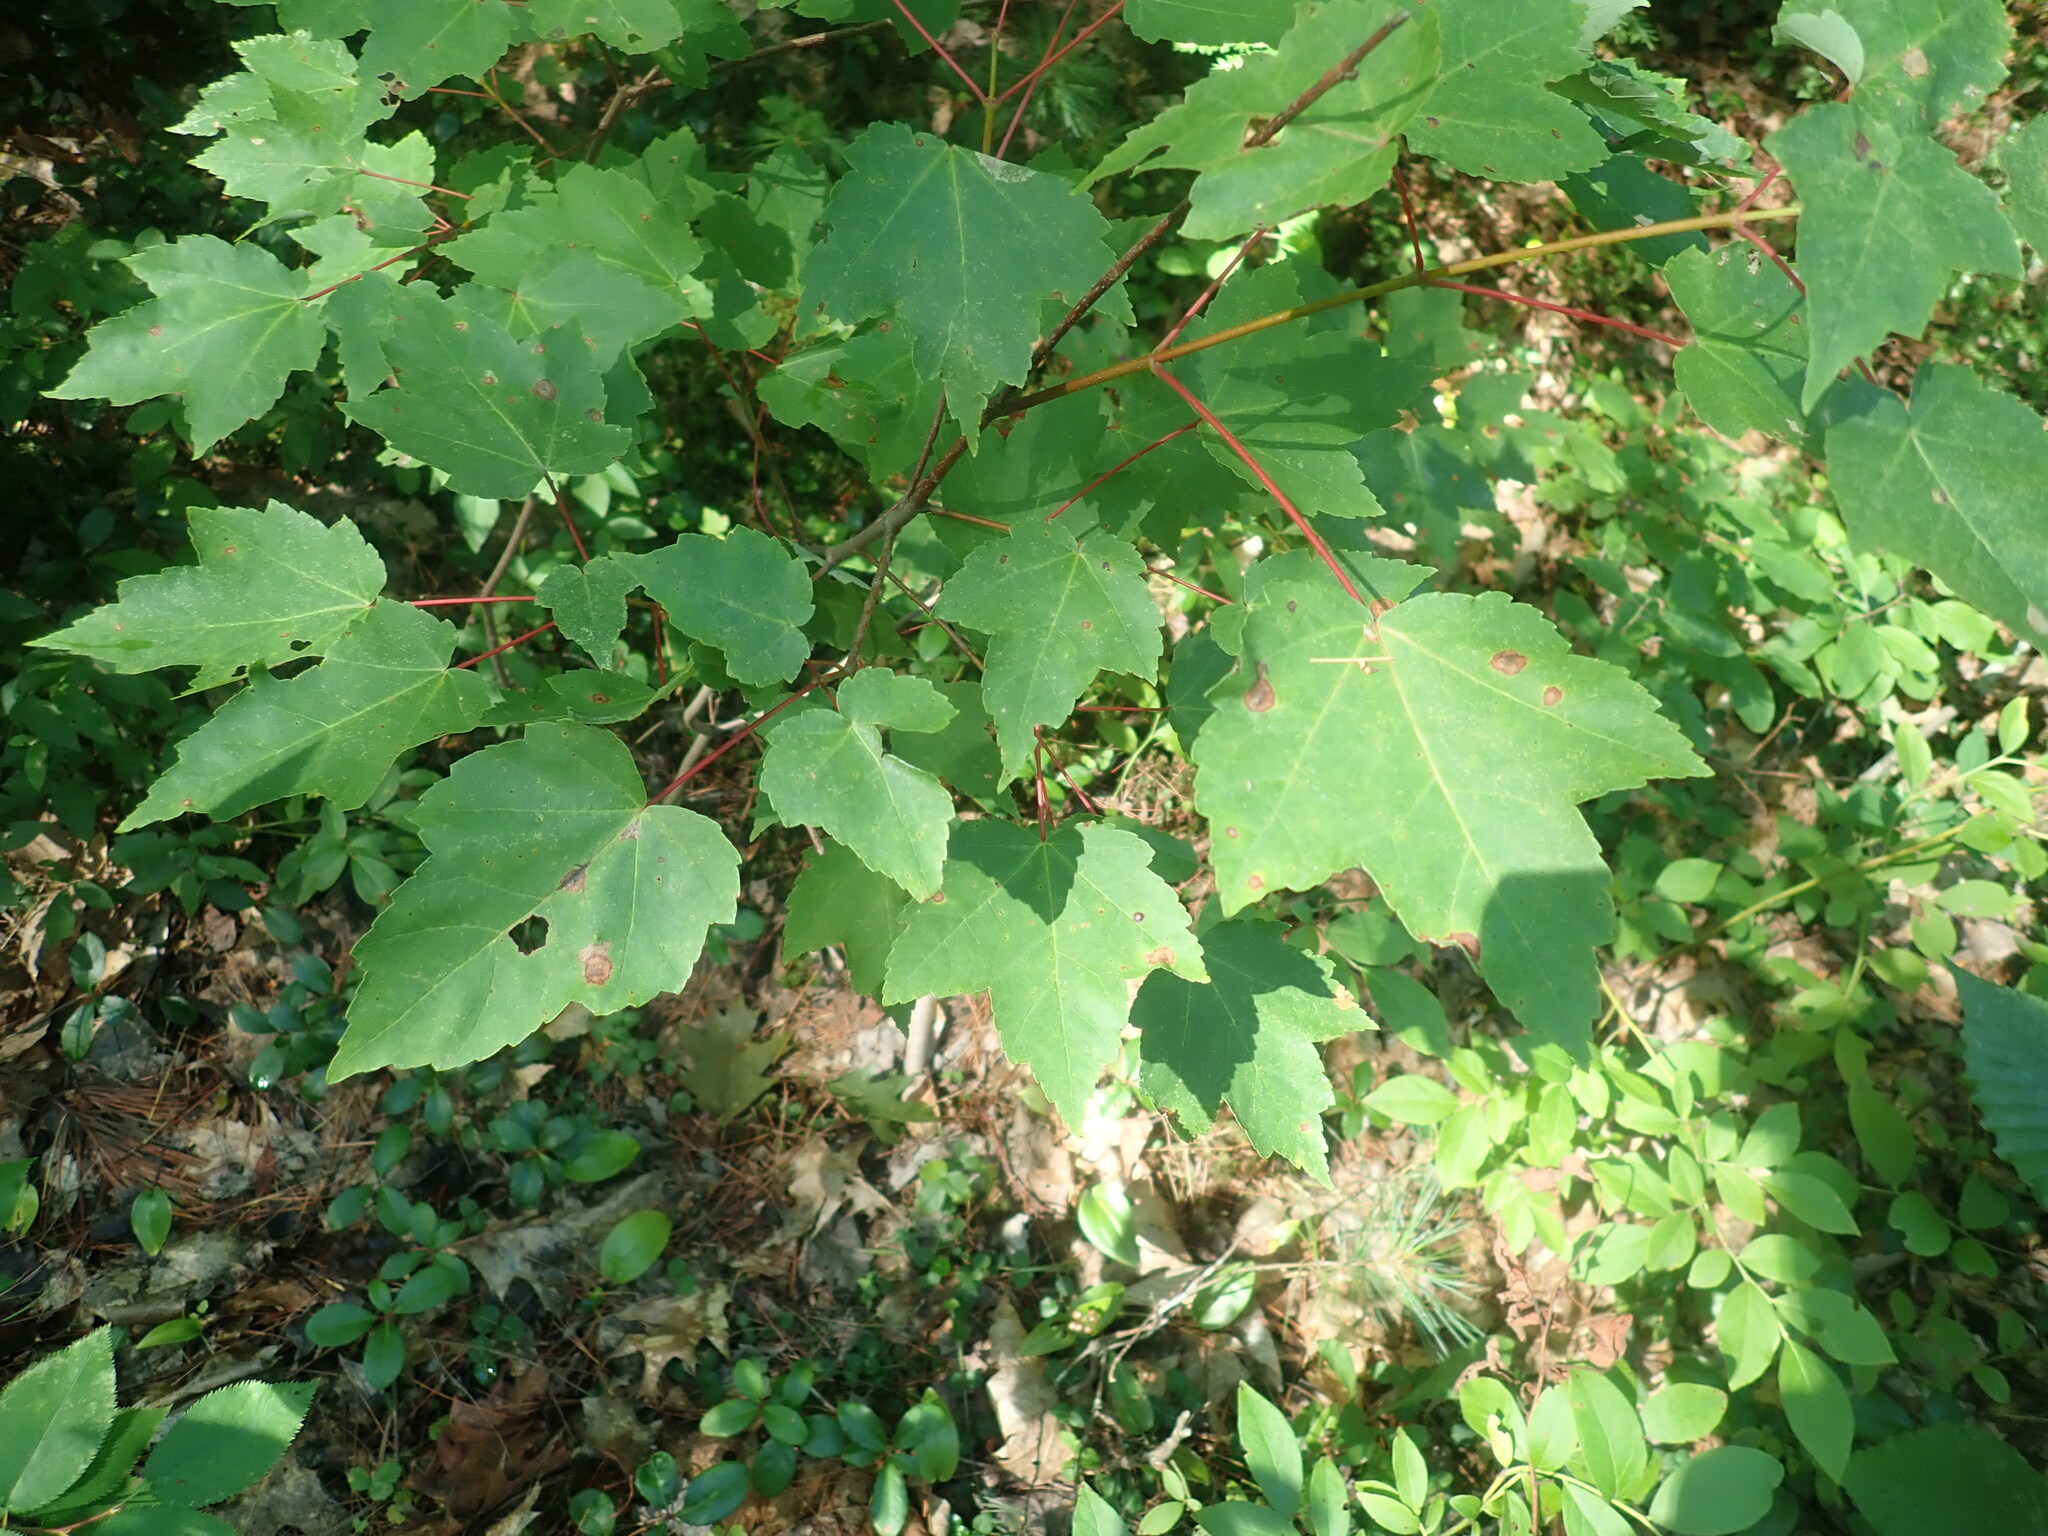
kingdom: Plantae
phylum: Tracheophyta
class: Magnoliopsida
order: Sapindales
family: Sapindaceae
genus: Acer
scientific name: Acer rubrum
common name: Red maple
